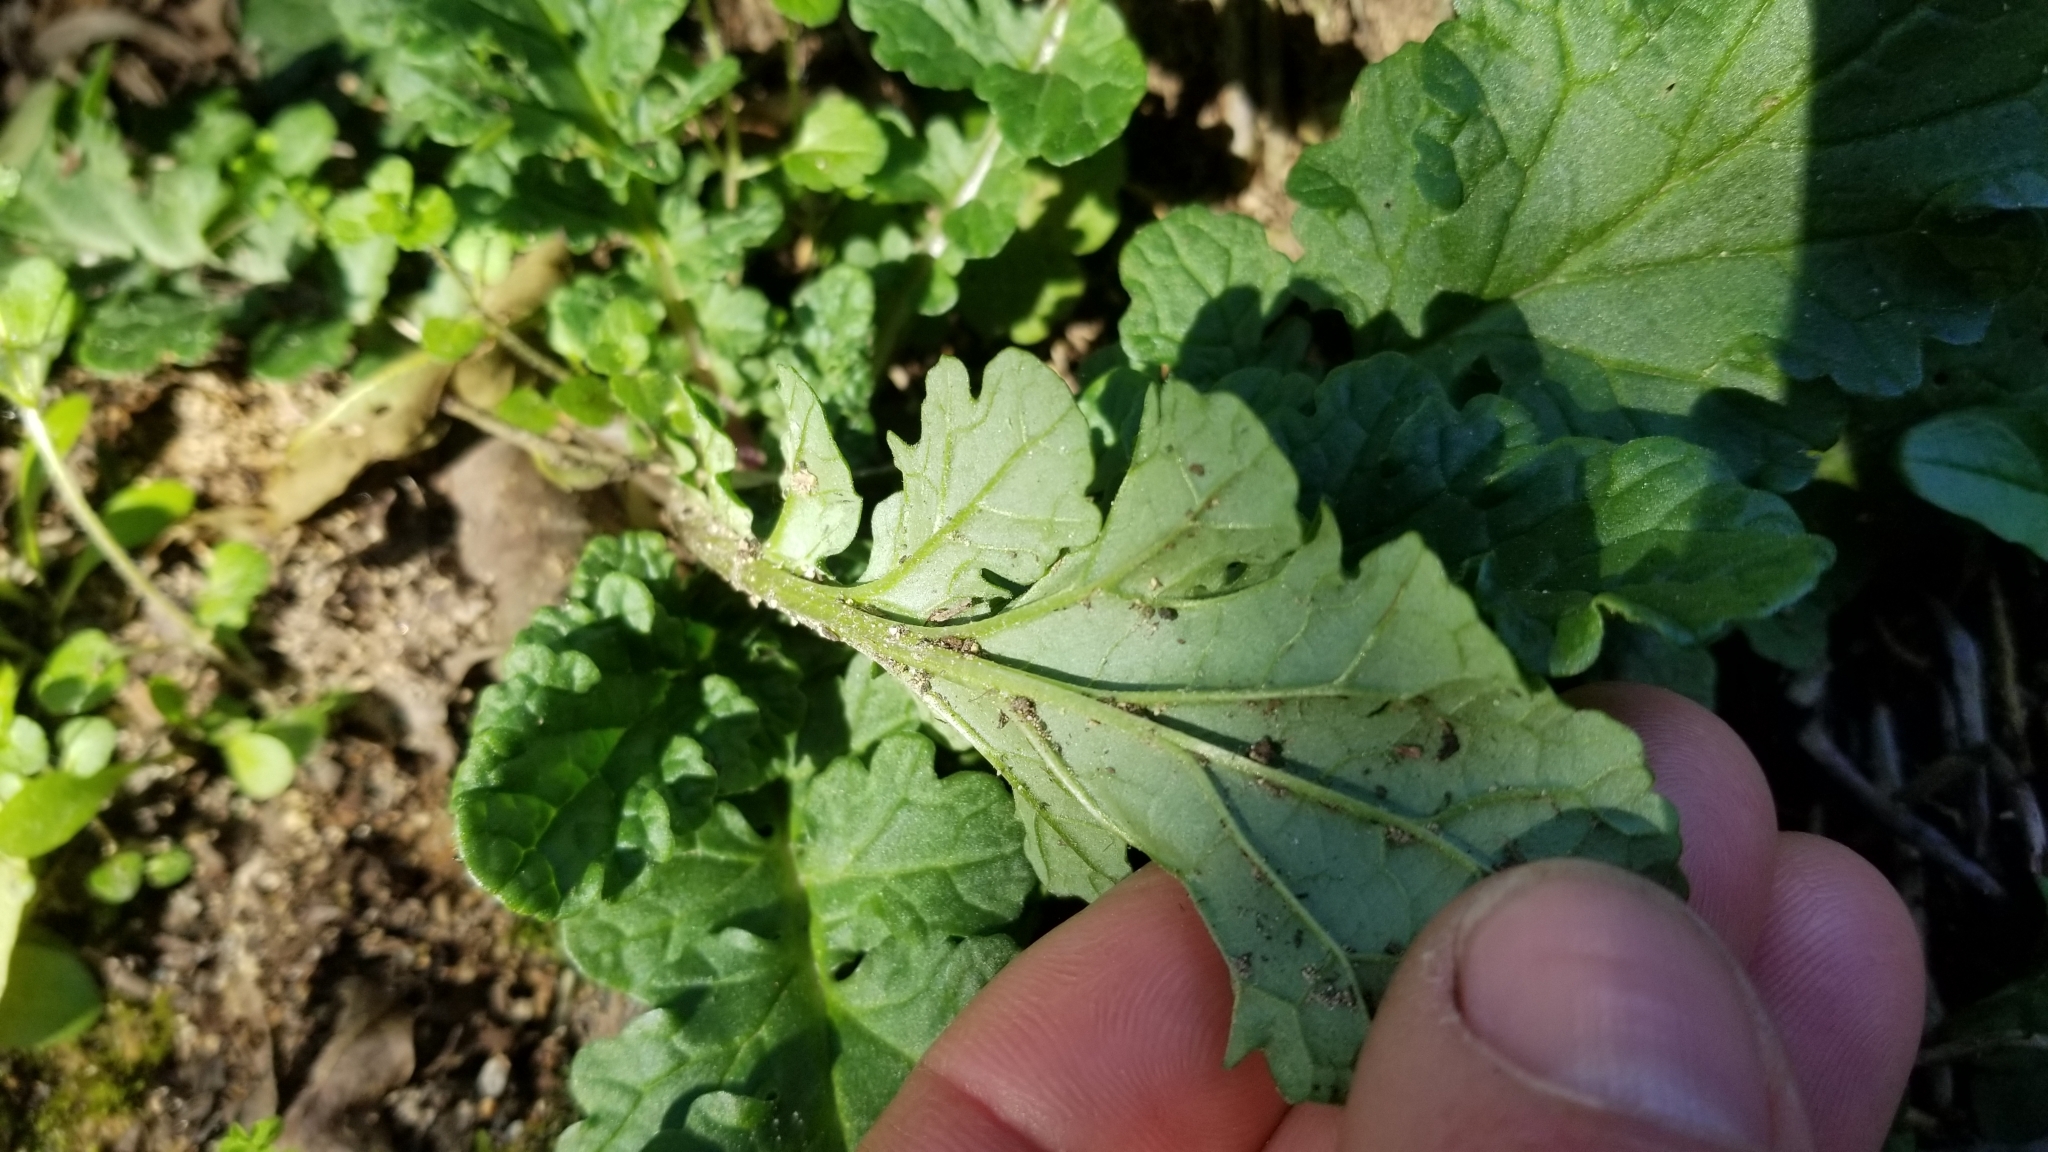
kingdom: Plantae
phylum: Tracheophyta
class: Magnoliopsida
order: Asterales
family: Asteraceae
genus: Jacobaea
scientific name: Jacobaea vulgaris
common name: Stinking willie
